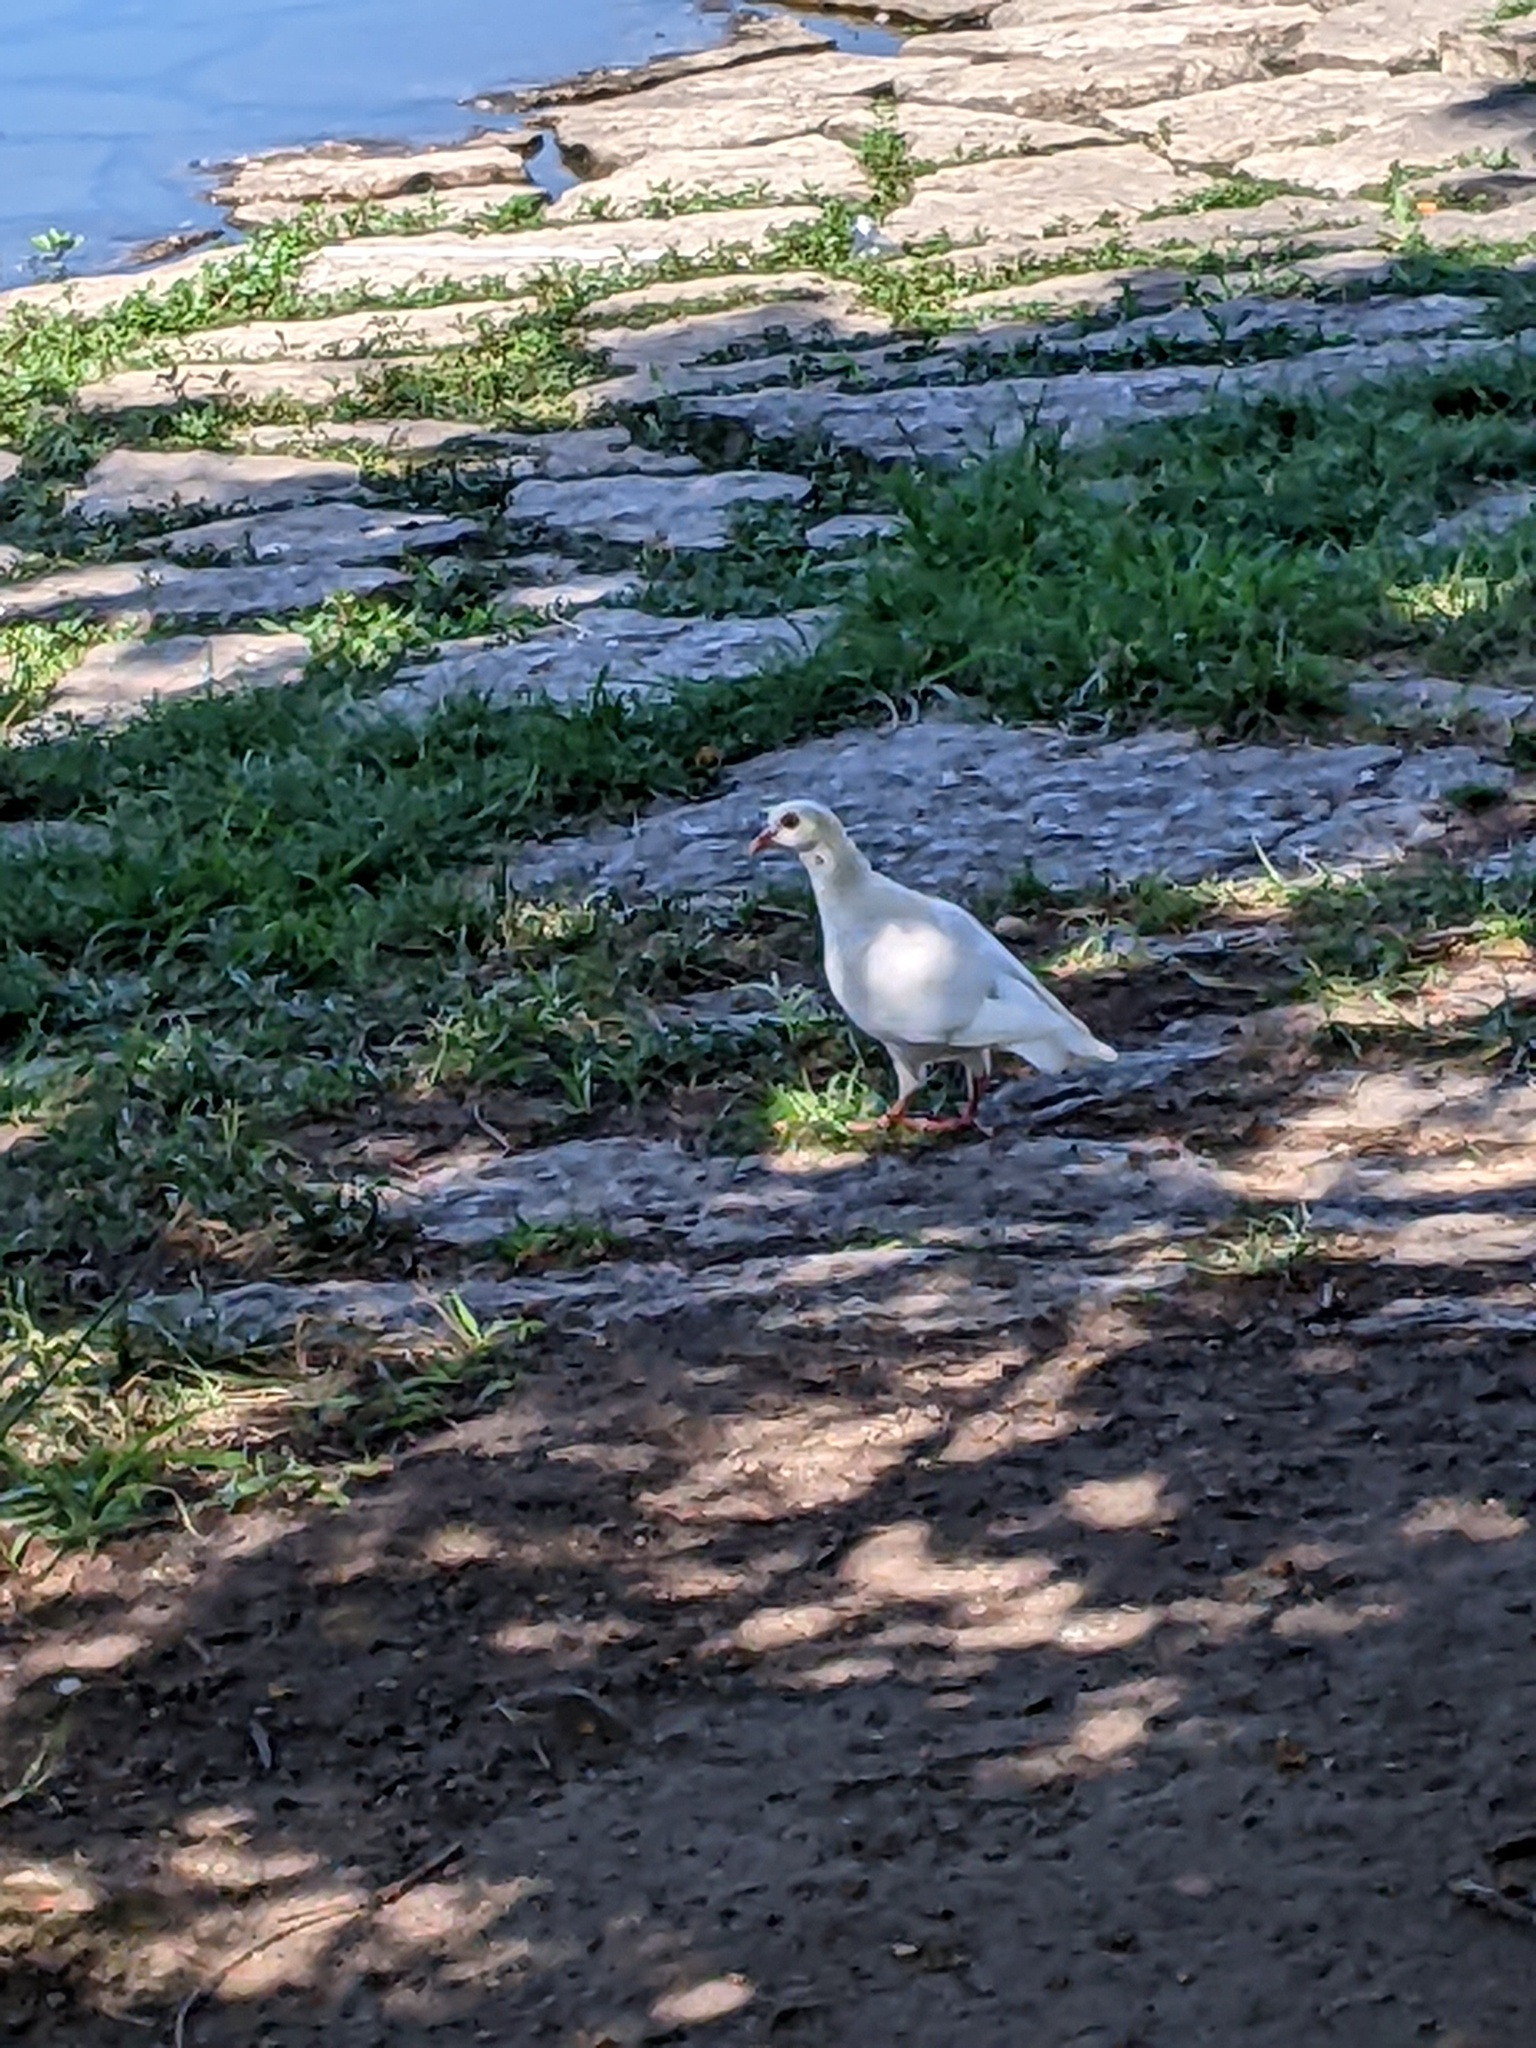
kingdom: Animalia
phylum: Chordata
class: Aves
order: Columbiformes
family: Columbidae
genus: Columba
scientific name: Columba livia
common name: Rock pigeon
